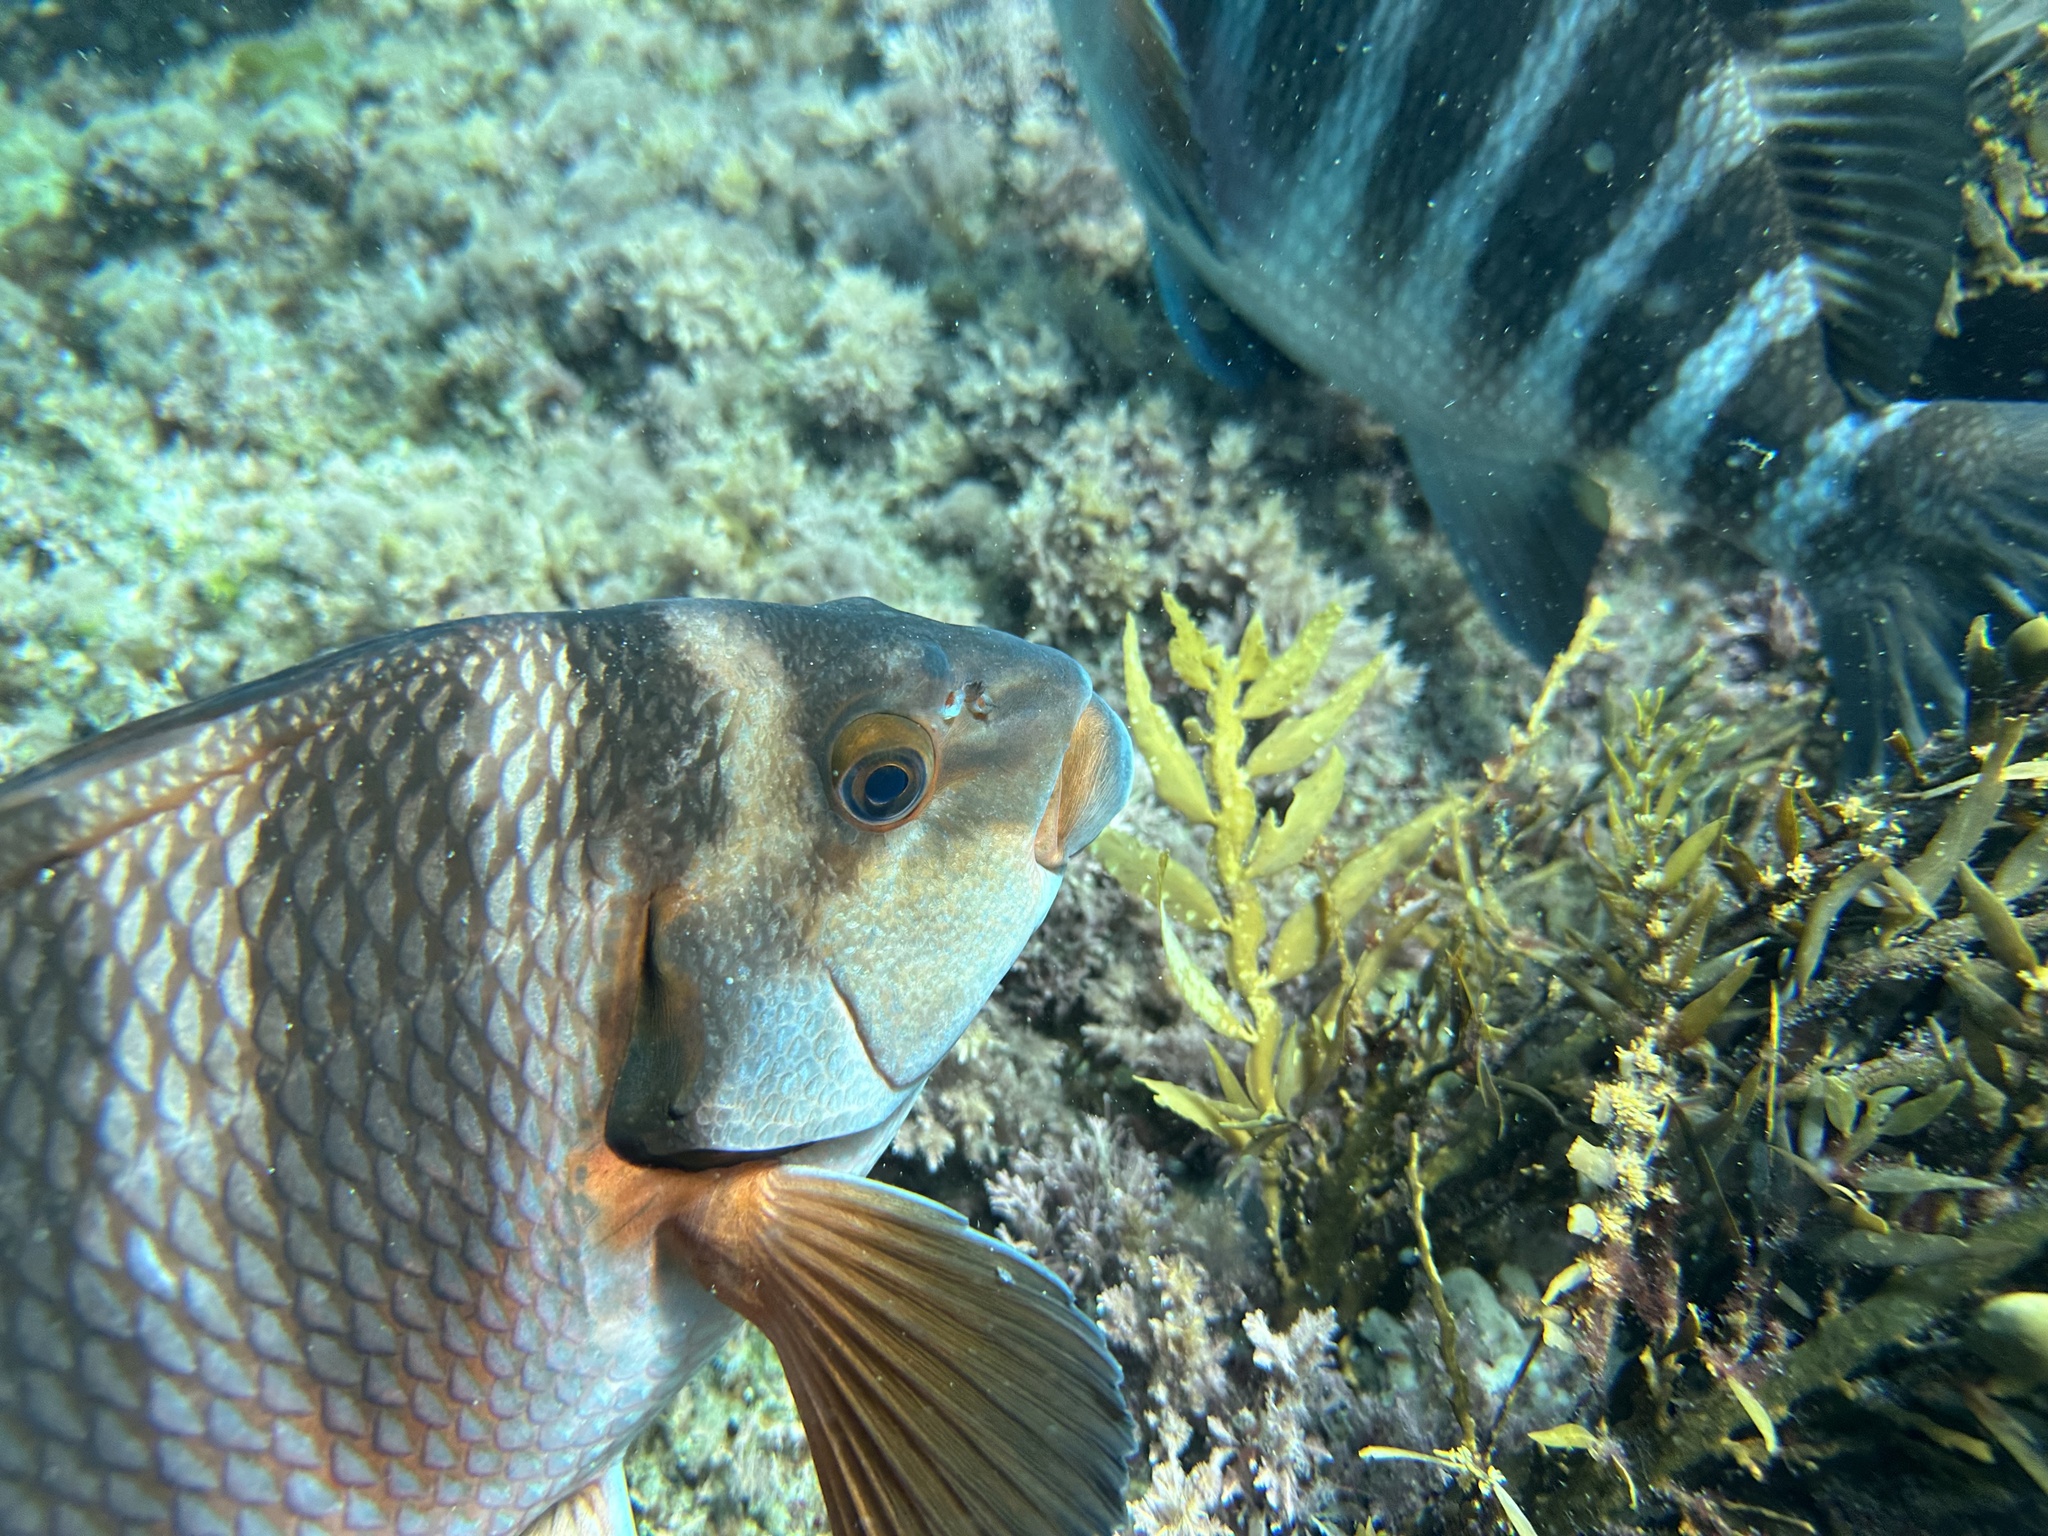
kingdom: Animalia
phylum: Chordata
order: Perciformes
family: Cheilodactylidae
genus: Cheilodactylus
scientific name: Cheilodactylus spectabilis
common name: Red moki
